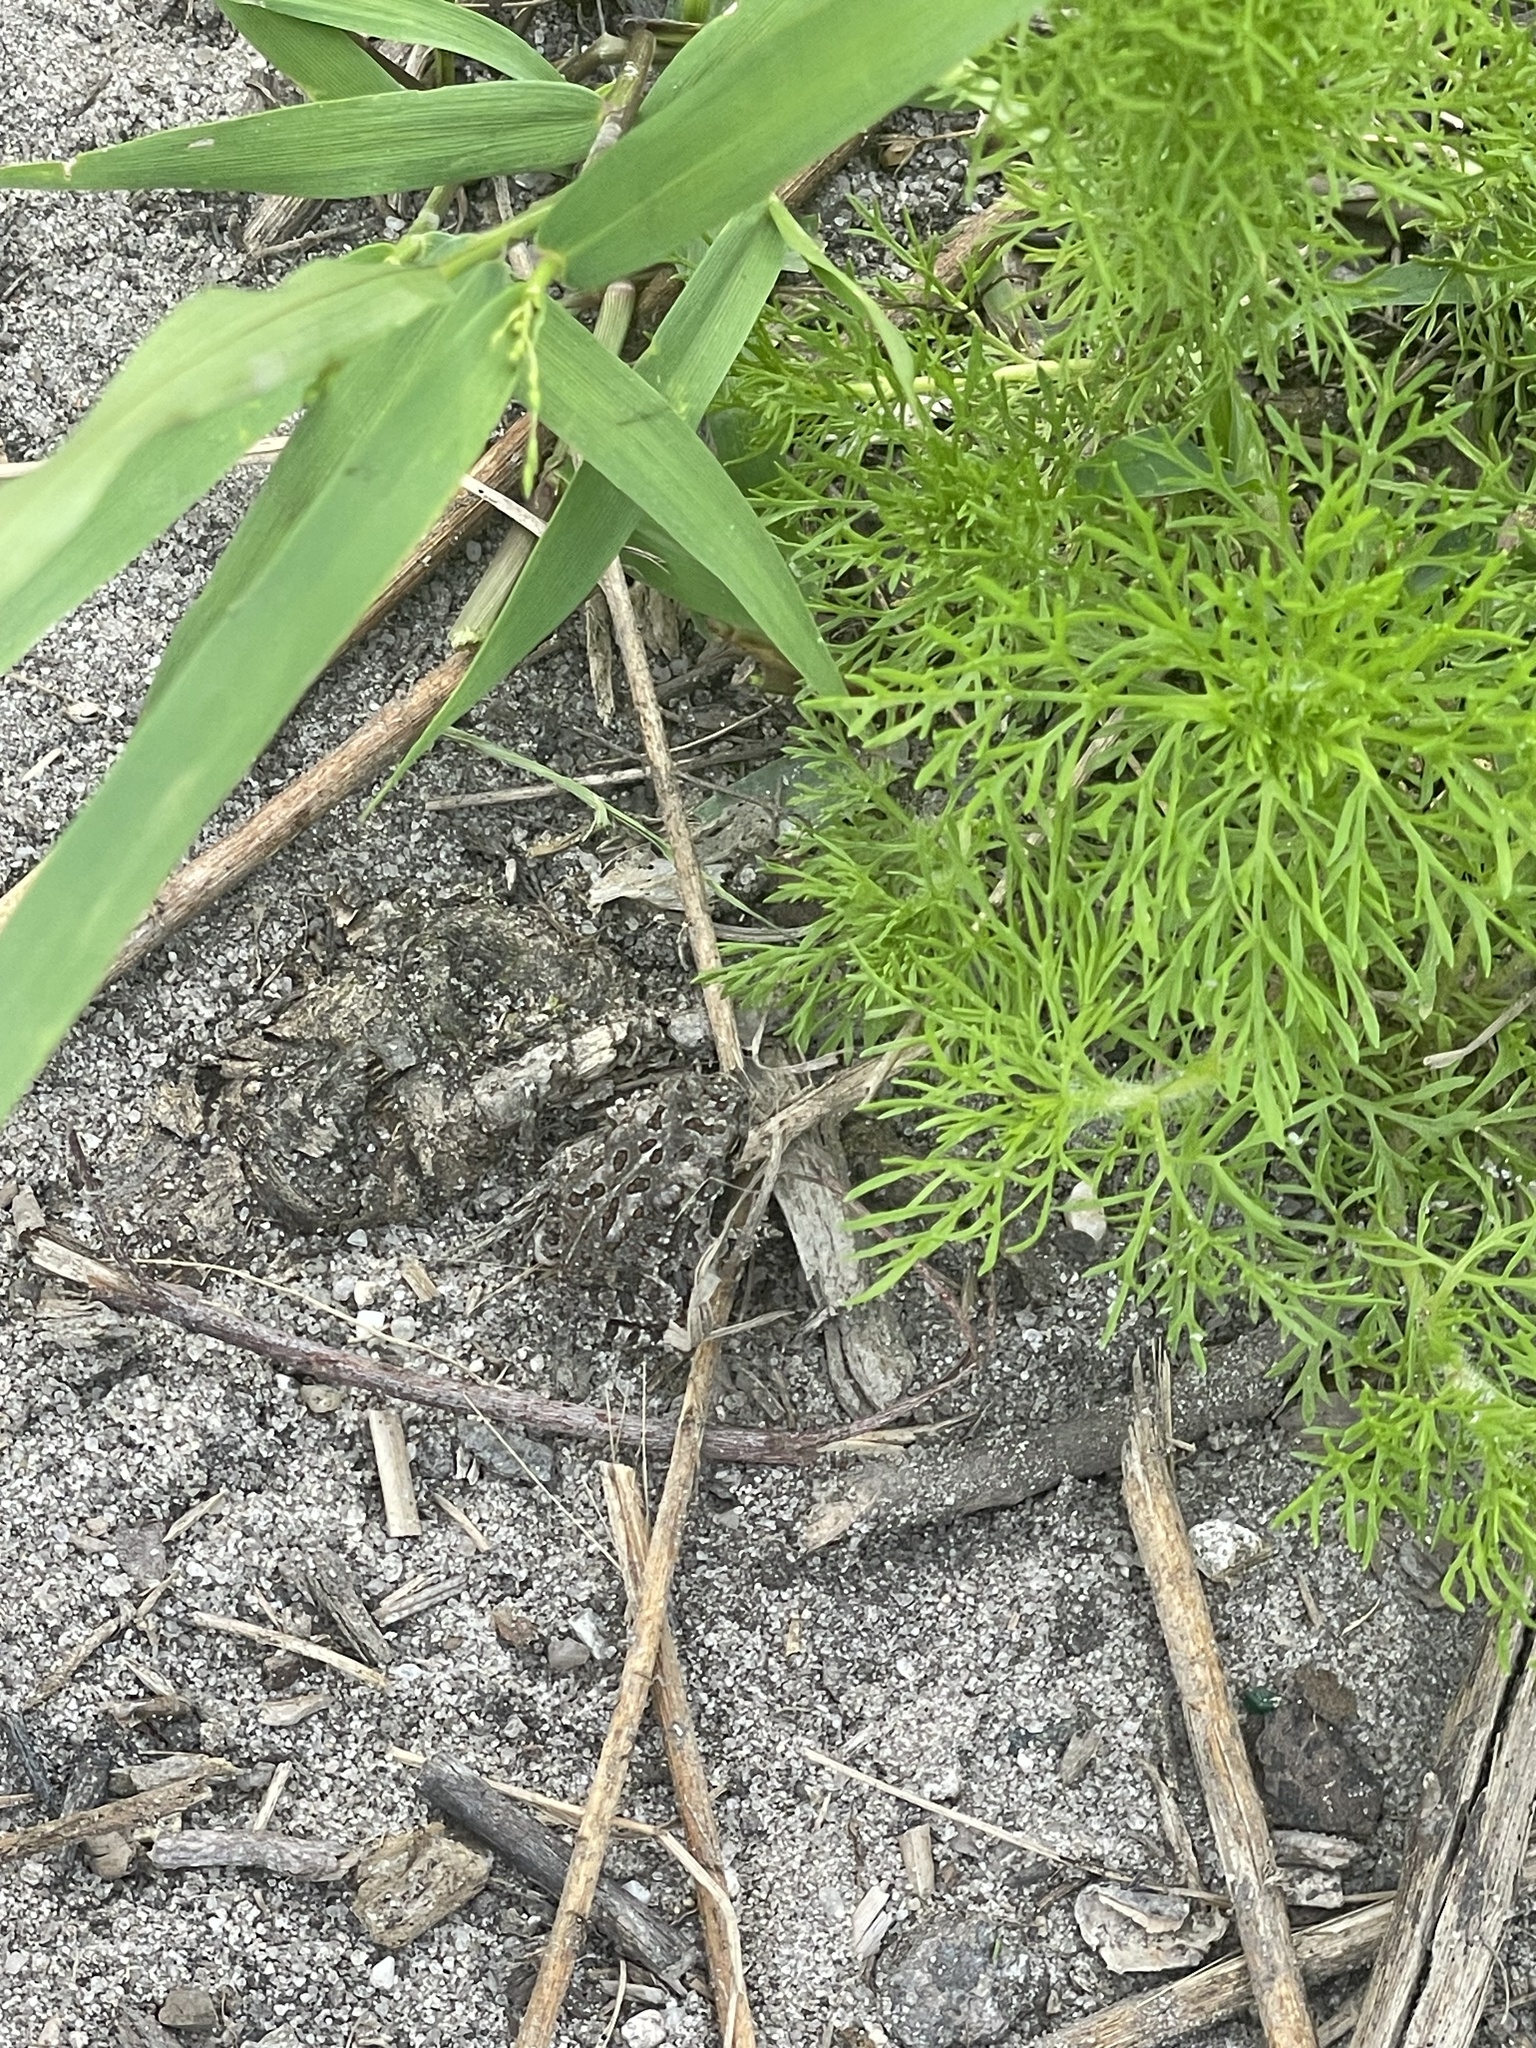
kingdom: Animalia
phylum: Chordata
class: Amphibia
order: Anura
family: Bufonidae
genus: Anaxyrus
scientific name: Anaxyrus fowleri
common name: Fowler's toad
